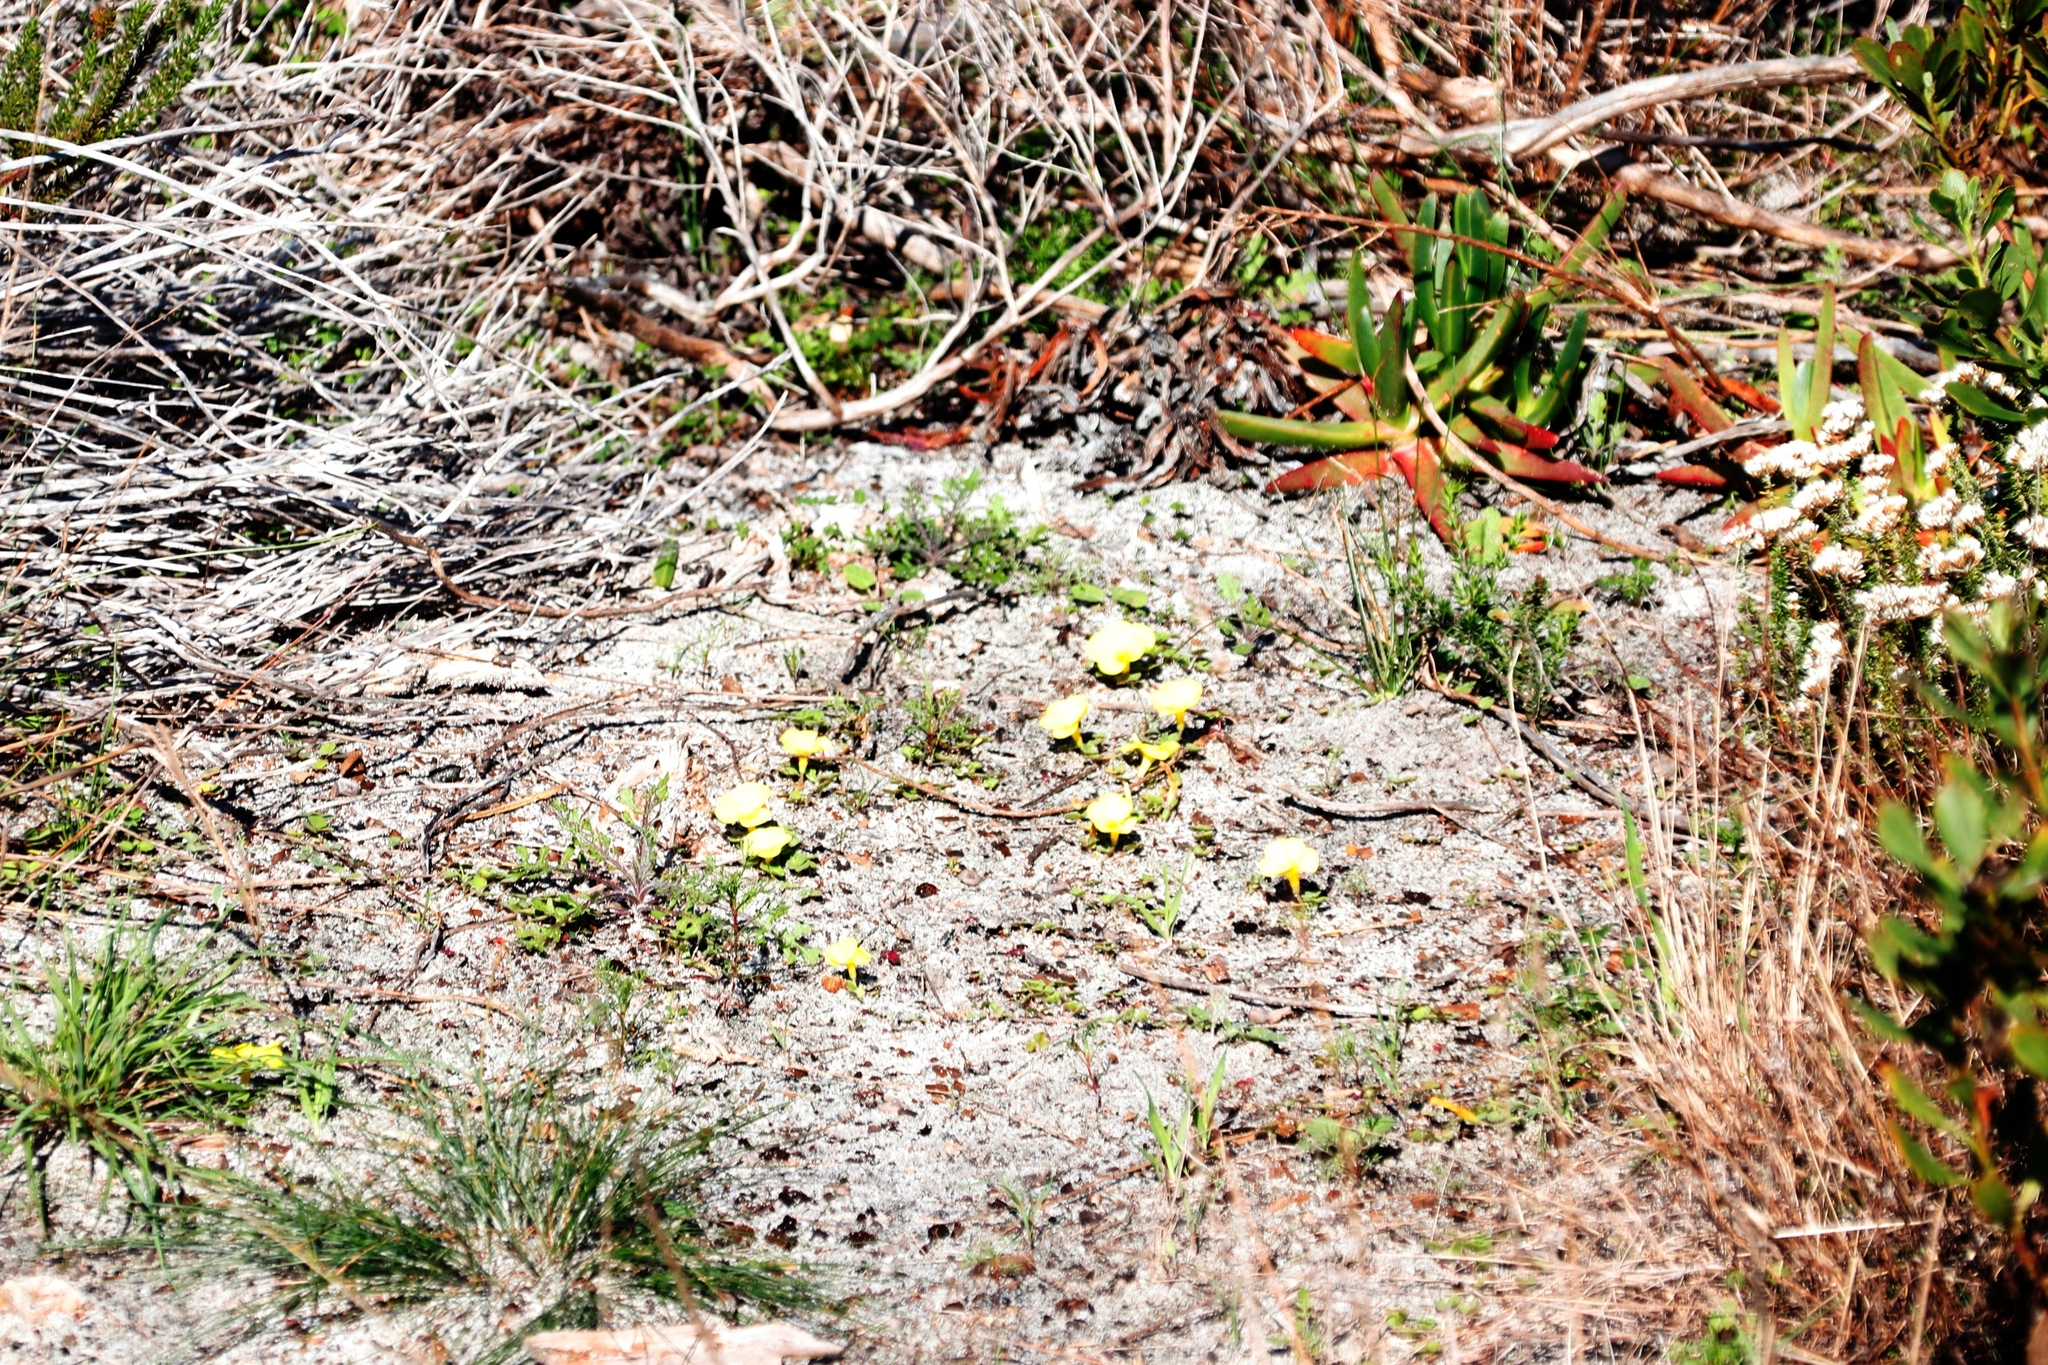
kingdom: Plantae
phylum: Tracheophyta
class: Magnoliopsida
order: Oxalidales
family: Oxalidaceae
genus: Oxalis
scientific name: Oxalis luteola
